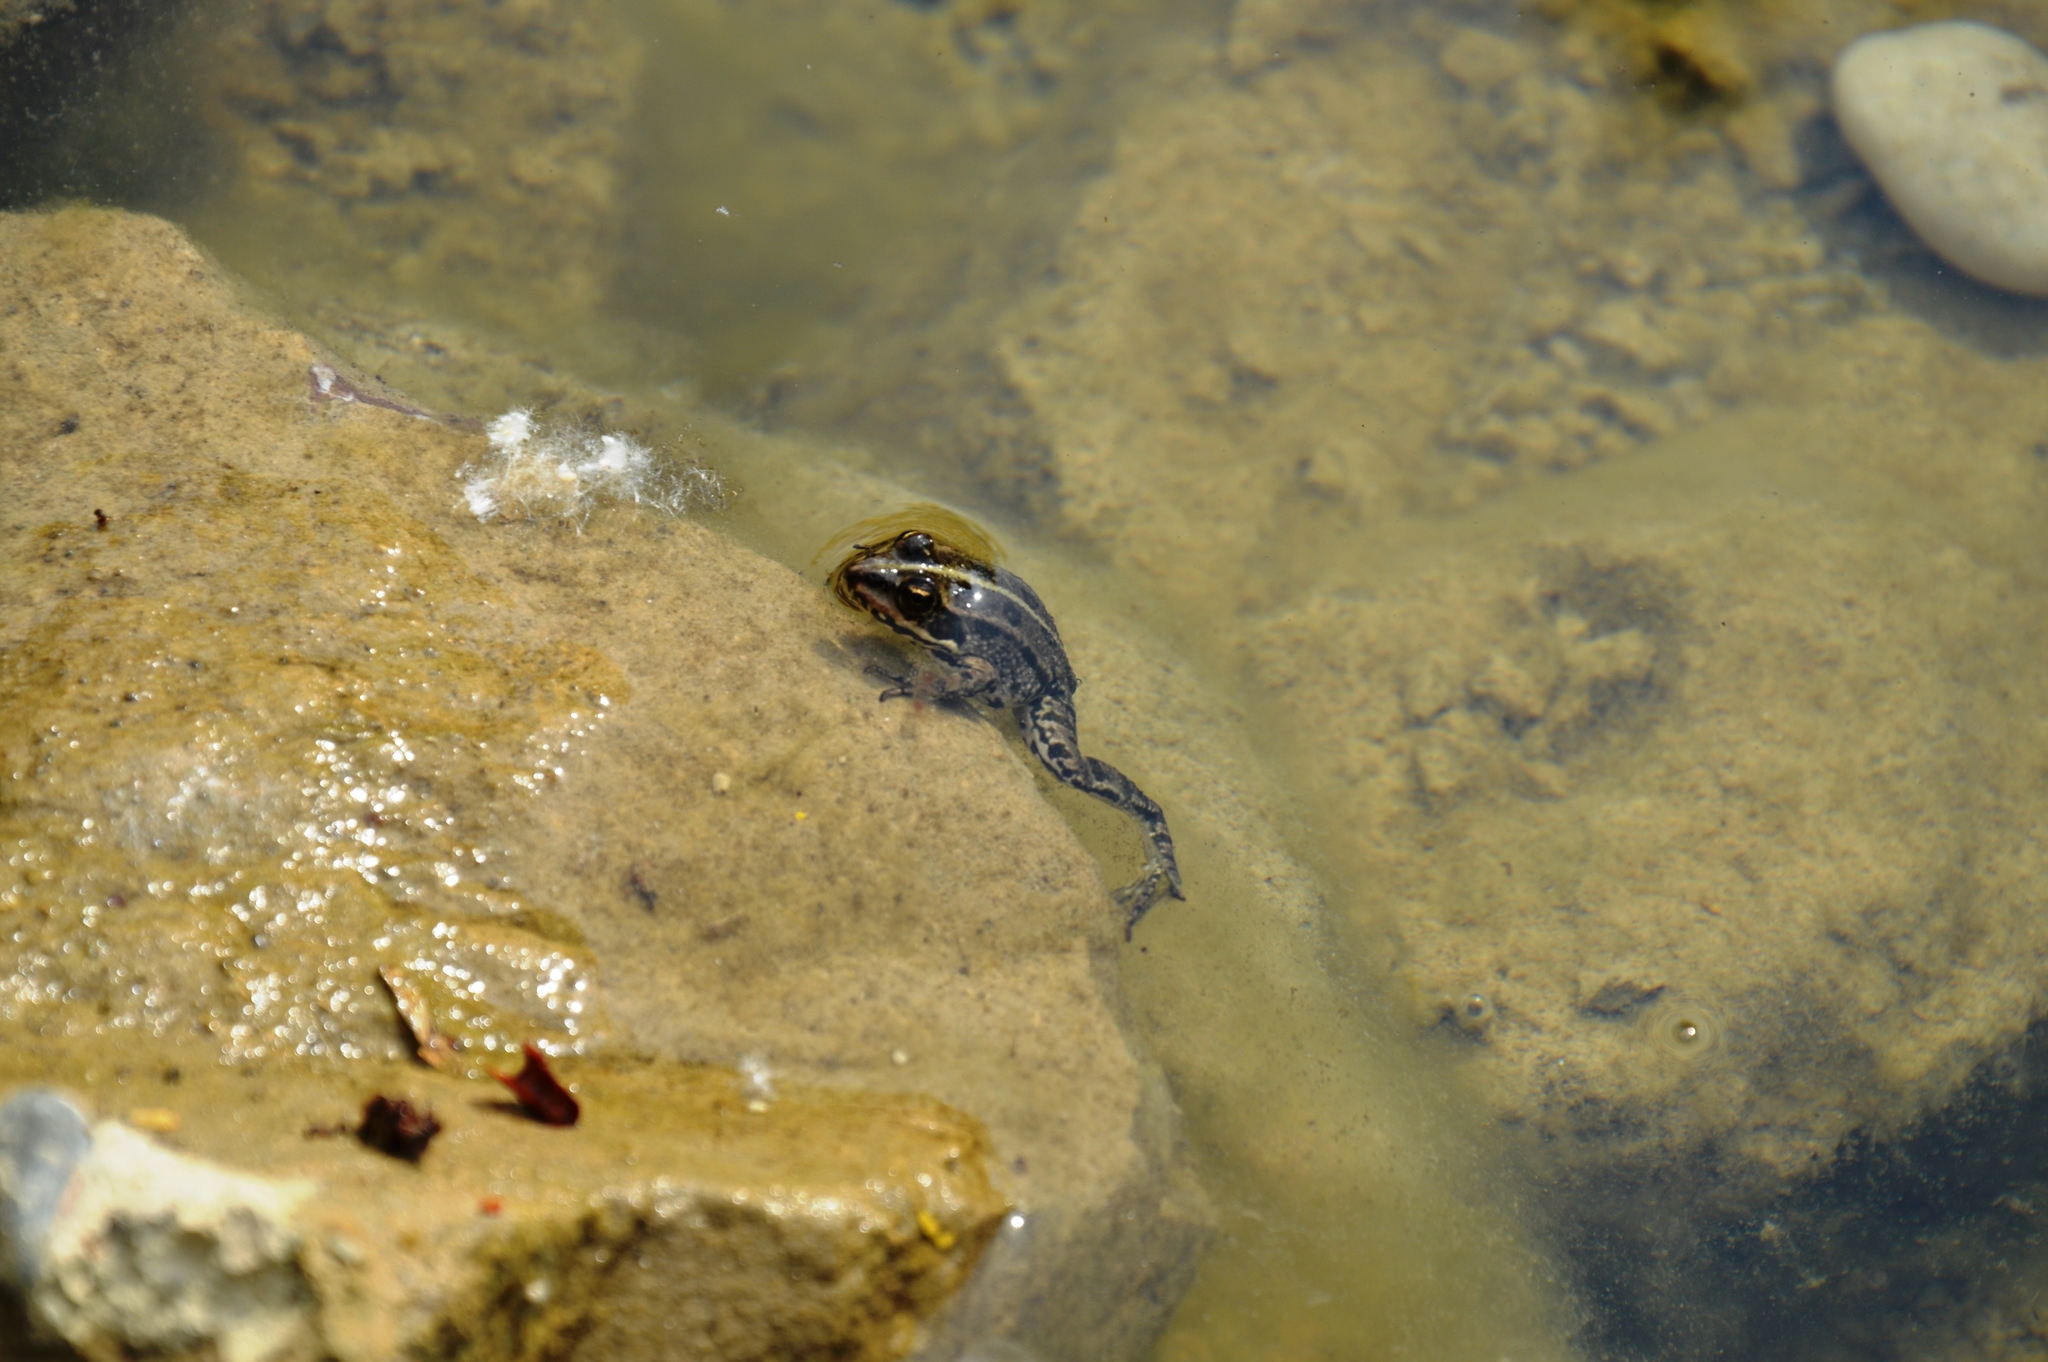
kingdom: Animalia
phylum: Chordata
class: Amphibia
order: Anura
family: Ranidae
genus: Pelophylax
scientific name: Pelophylax
